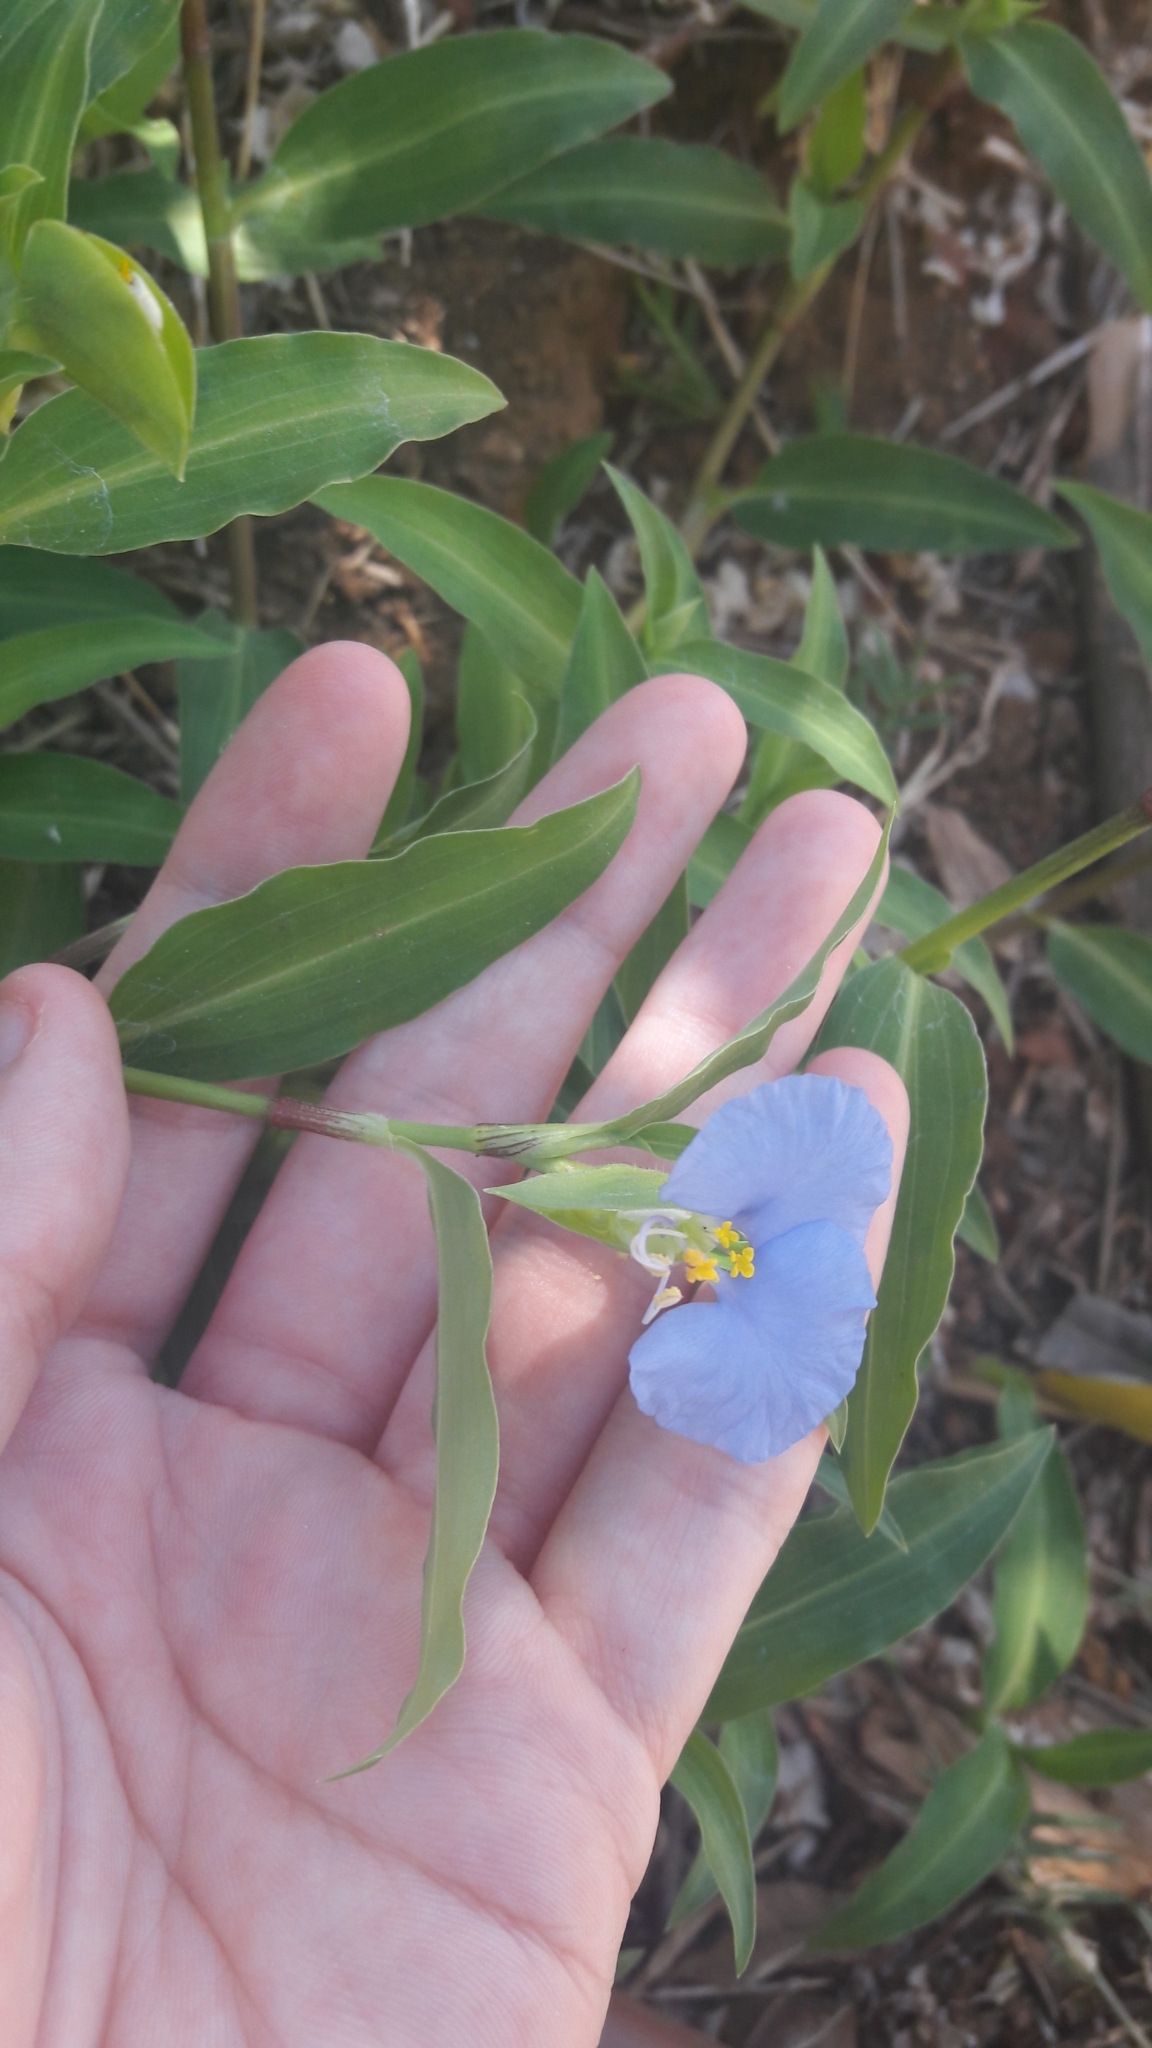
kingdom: Plantae
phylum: Tracheophyta
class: Liliopsida
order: Commelinales
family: Commelinaceae
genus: Commelina
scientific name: Commelina erecta
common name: Blousel blommetjie
